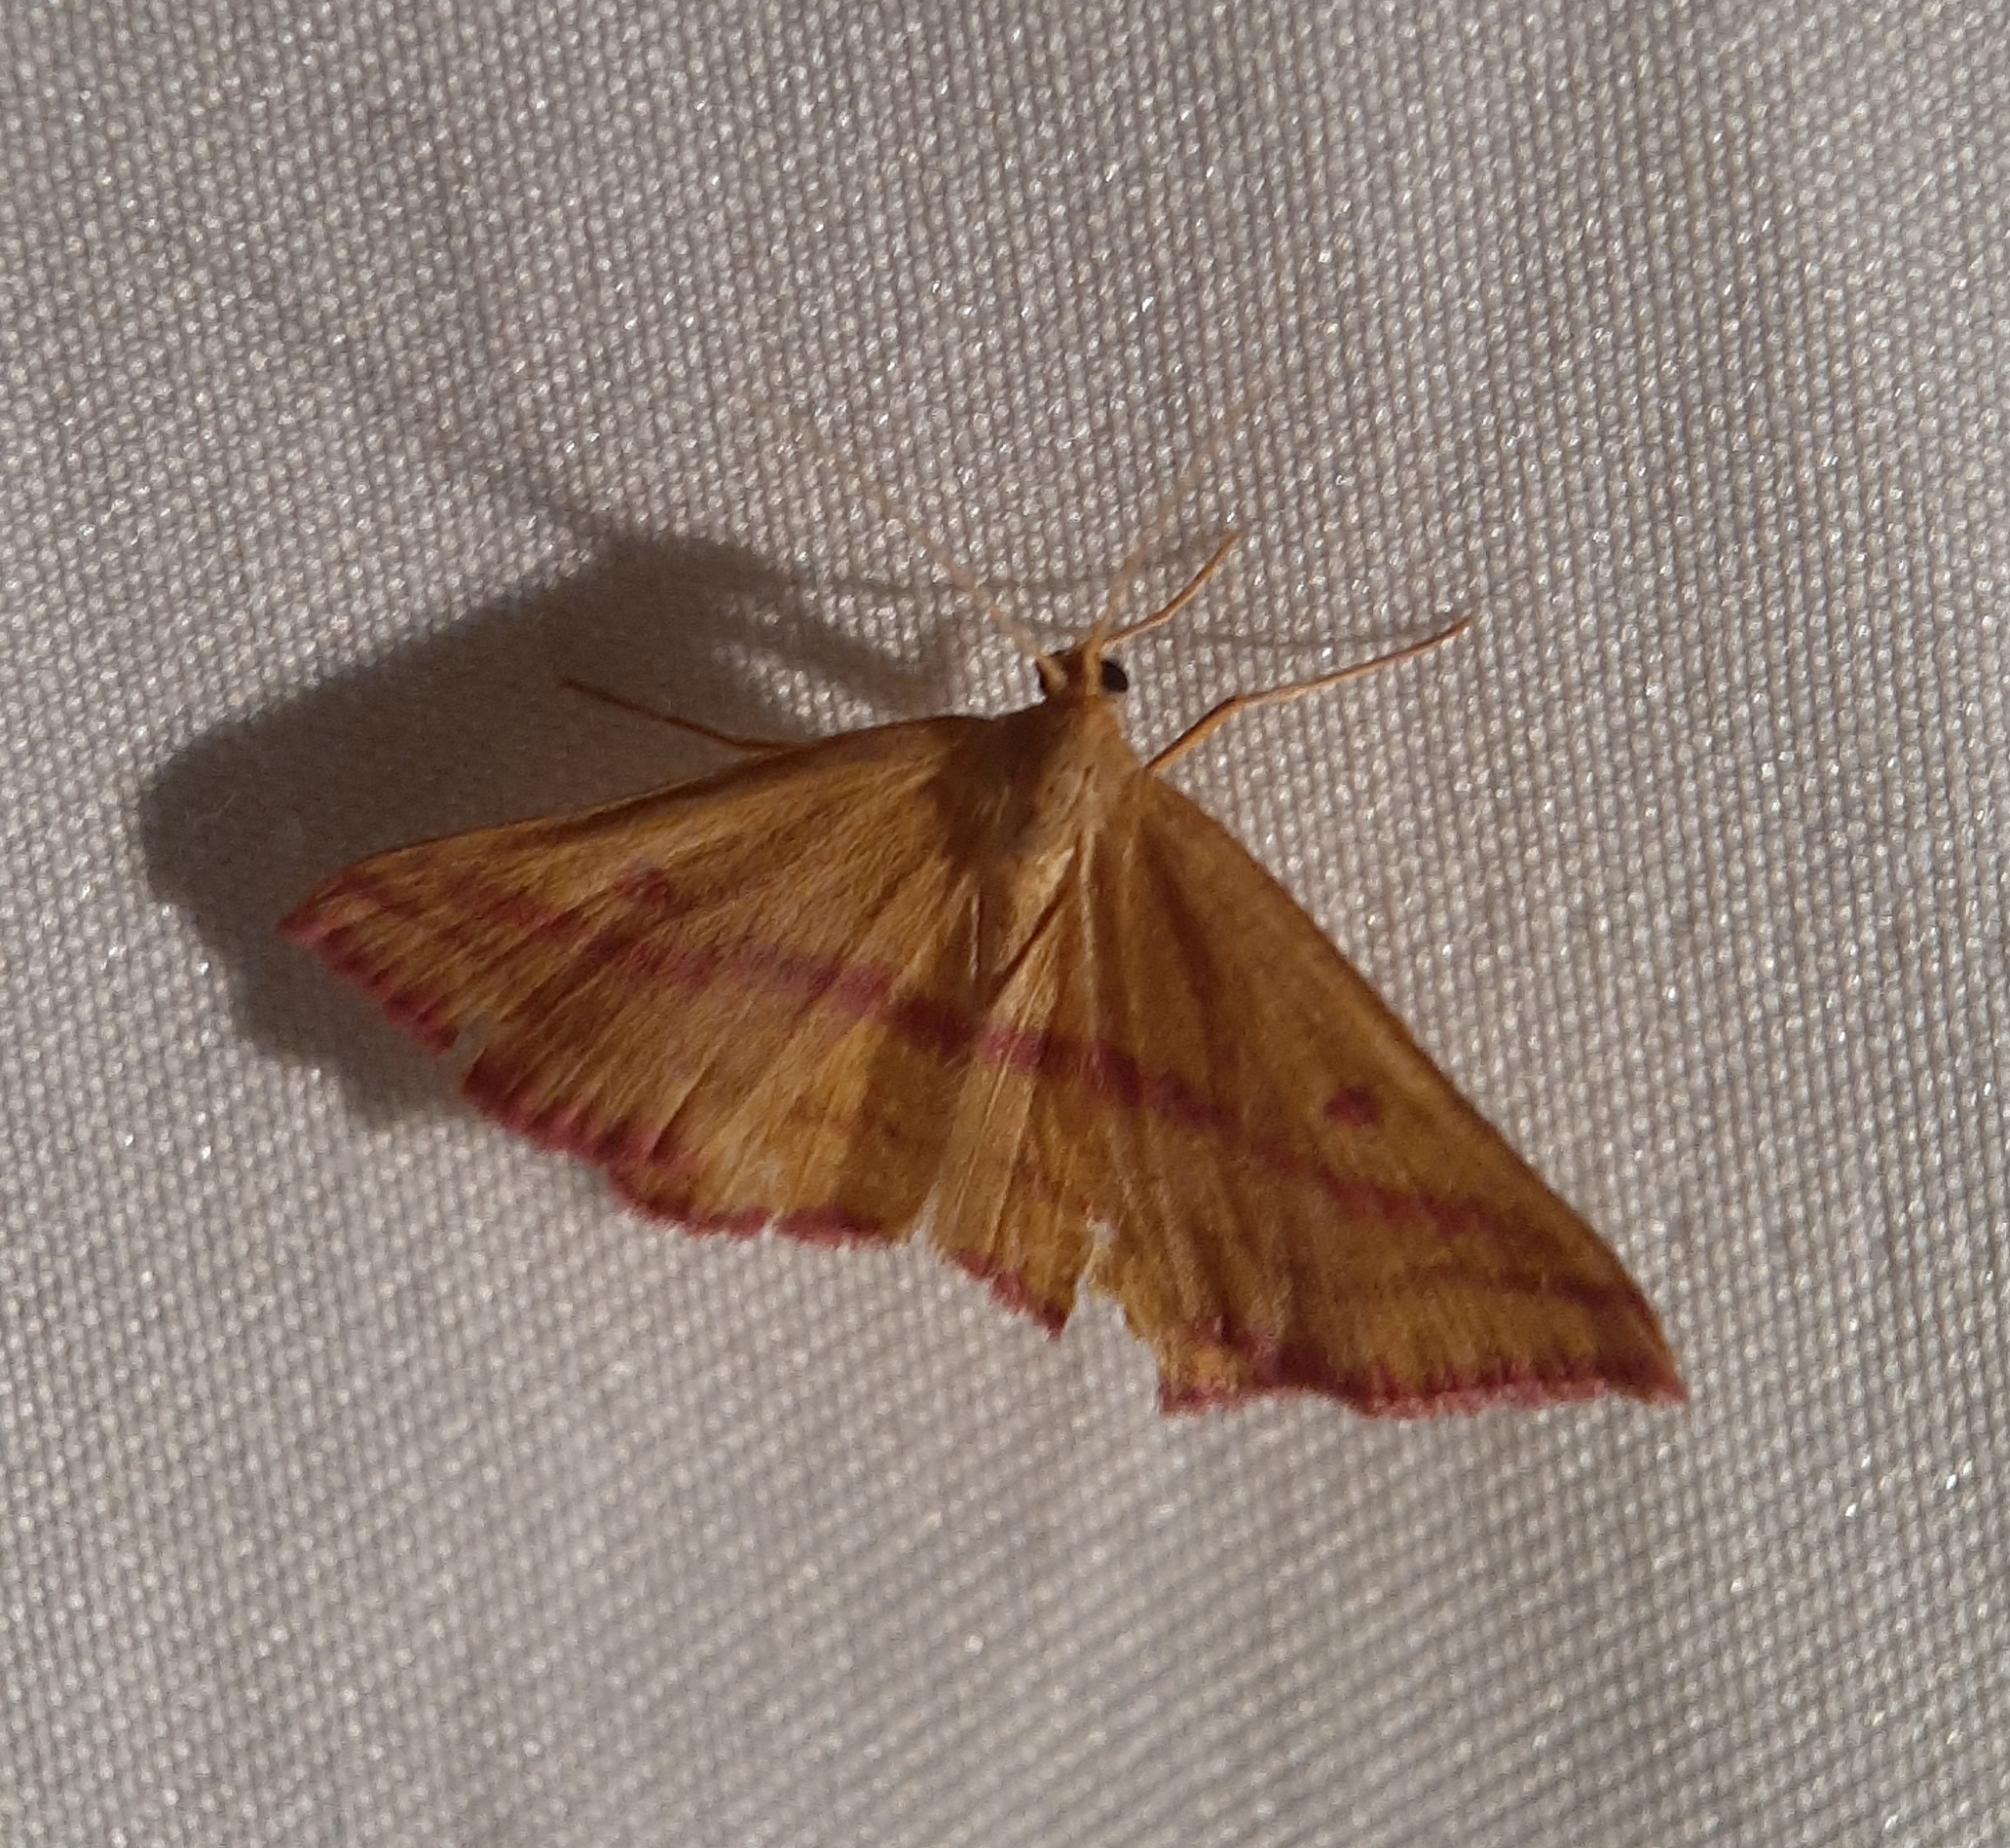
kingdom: Animalia
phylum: Arthropoda
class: Insecta
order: Lepidoptera
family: Geometridae
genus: Haematopis
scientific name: Haematopis grataria
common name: Chickweed geometer
